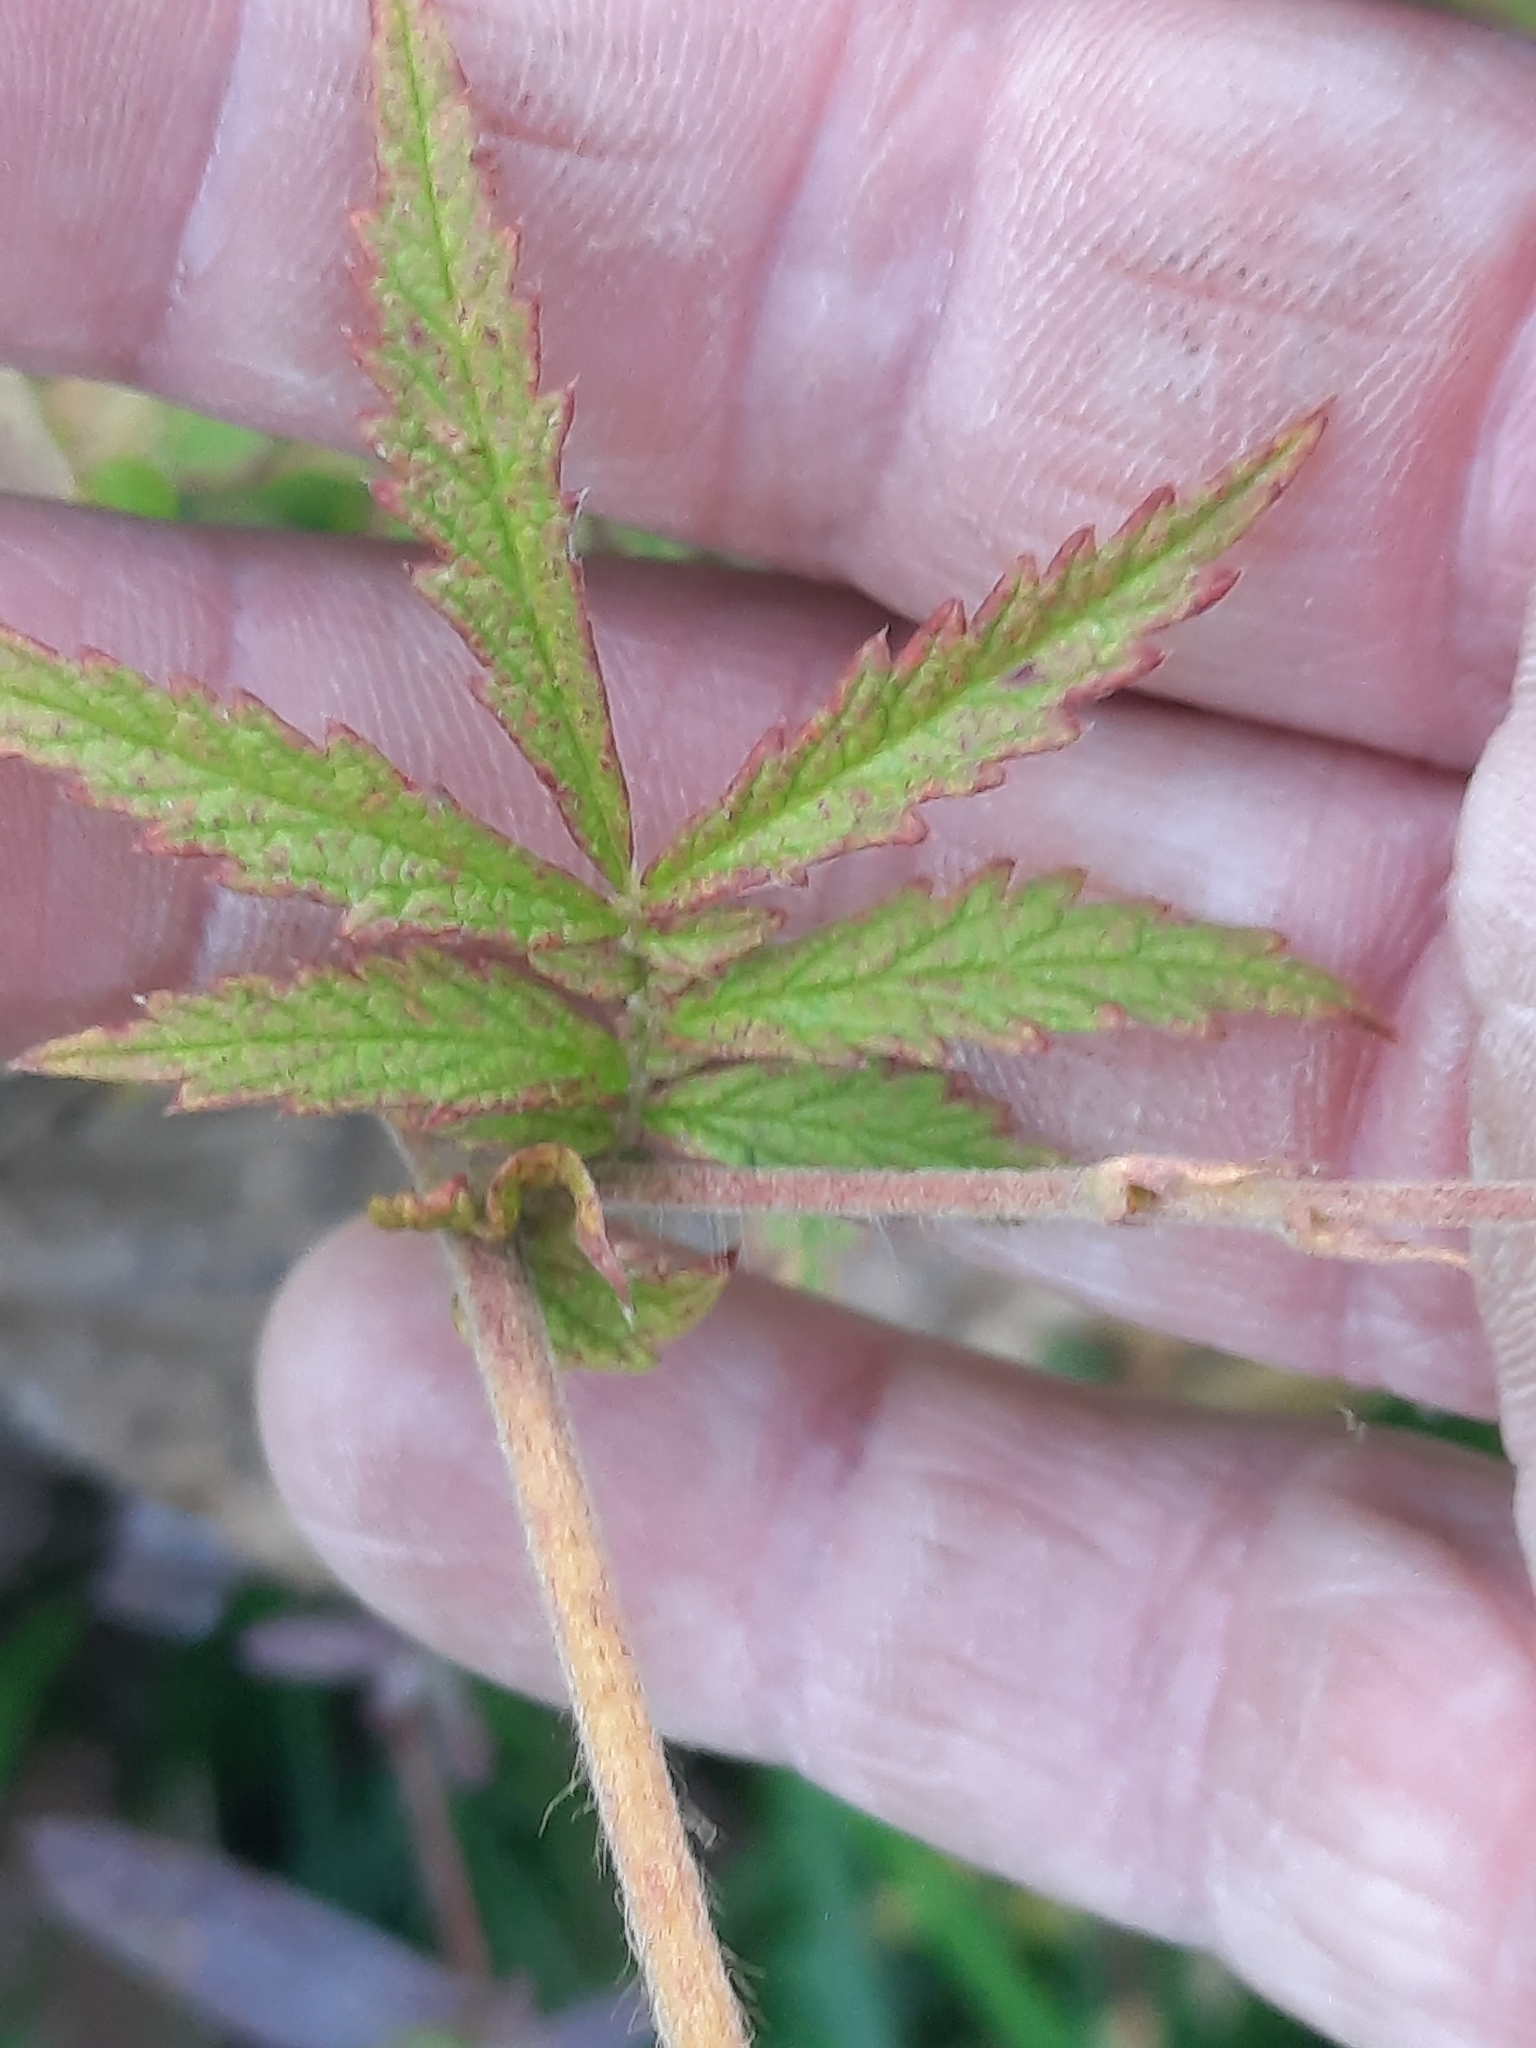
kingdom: Plantae
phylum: Tracheophyta
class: Magnoliopsida
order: Rosales
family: Rosaceae
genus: Agrimonia
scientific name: Agrimonia parviflora
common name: Harvest-lice
